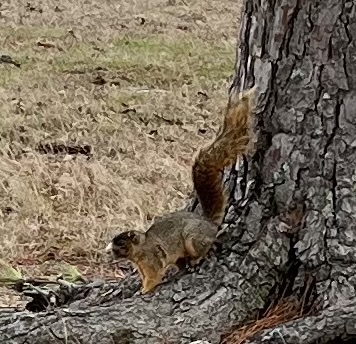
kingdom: Animalia
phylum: Chordata
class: Mammalia
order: Rodentia
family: Sciuridae
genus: Sciurus
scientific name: Sciurus niger
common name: Fox squirrel
